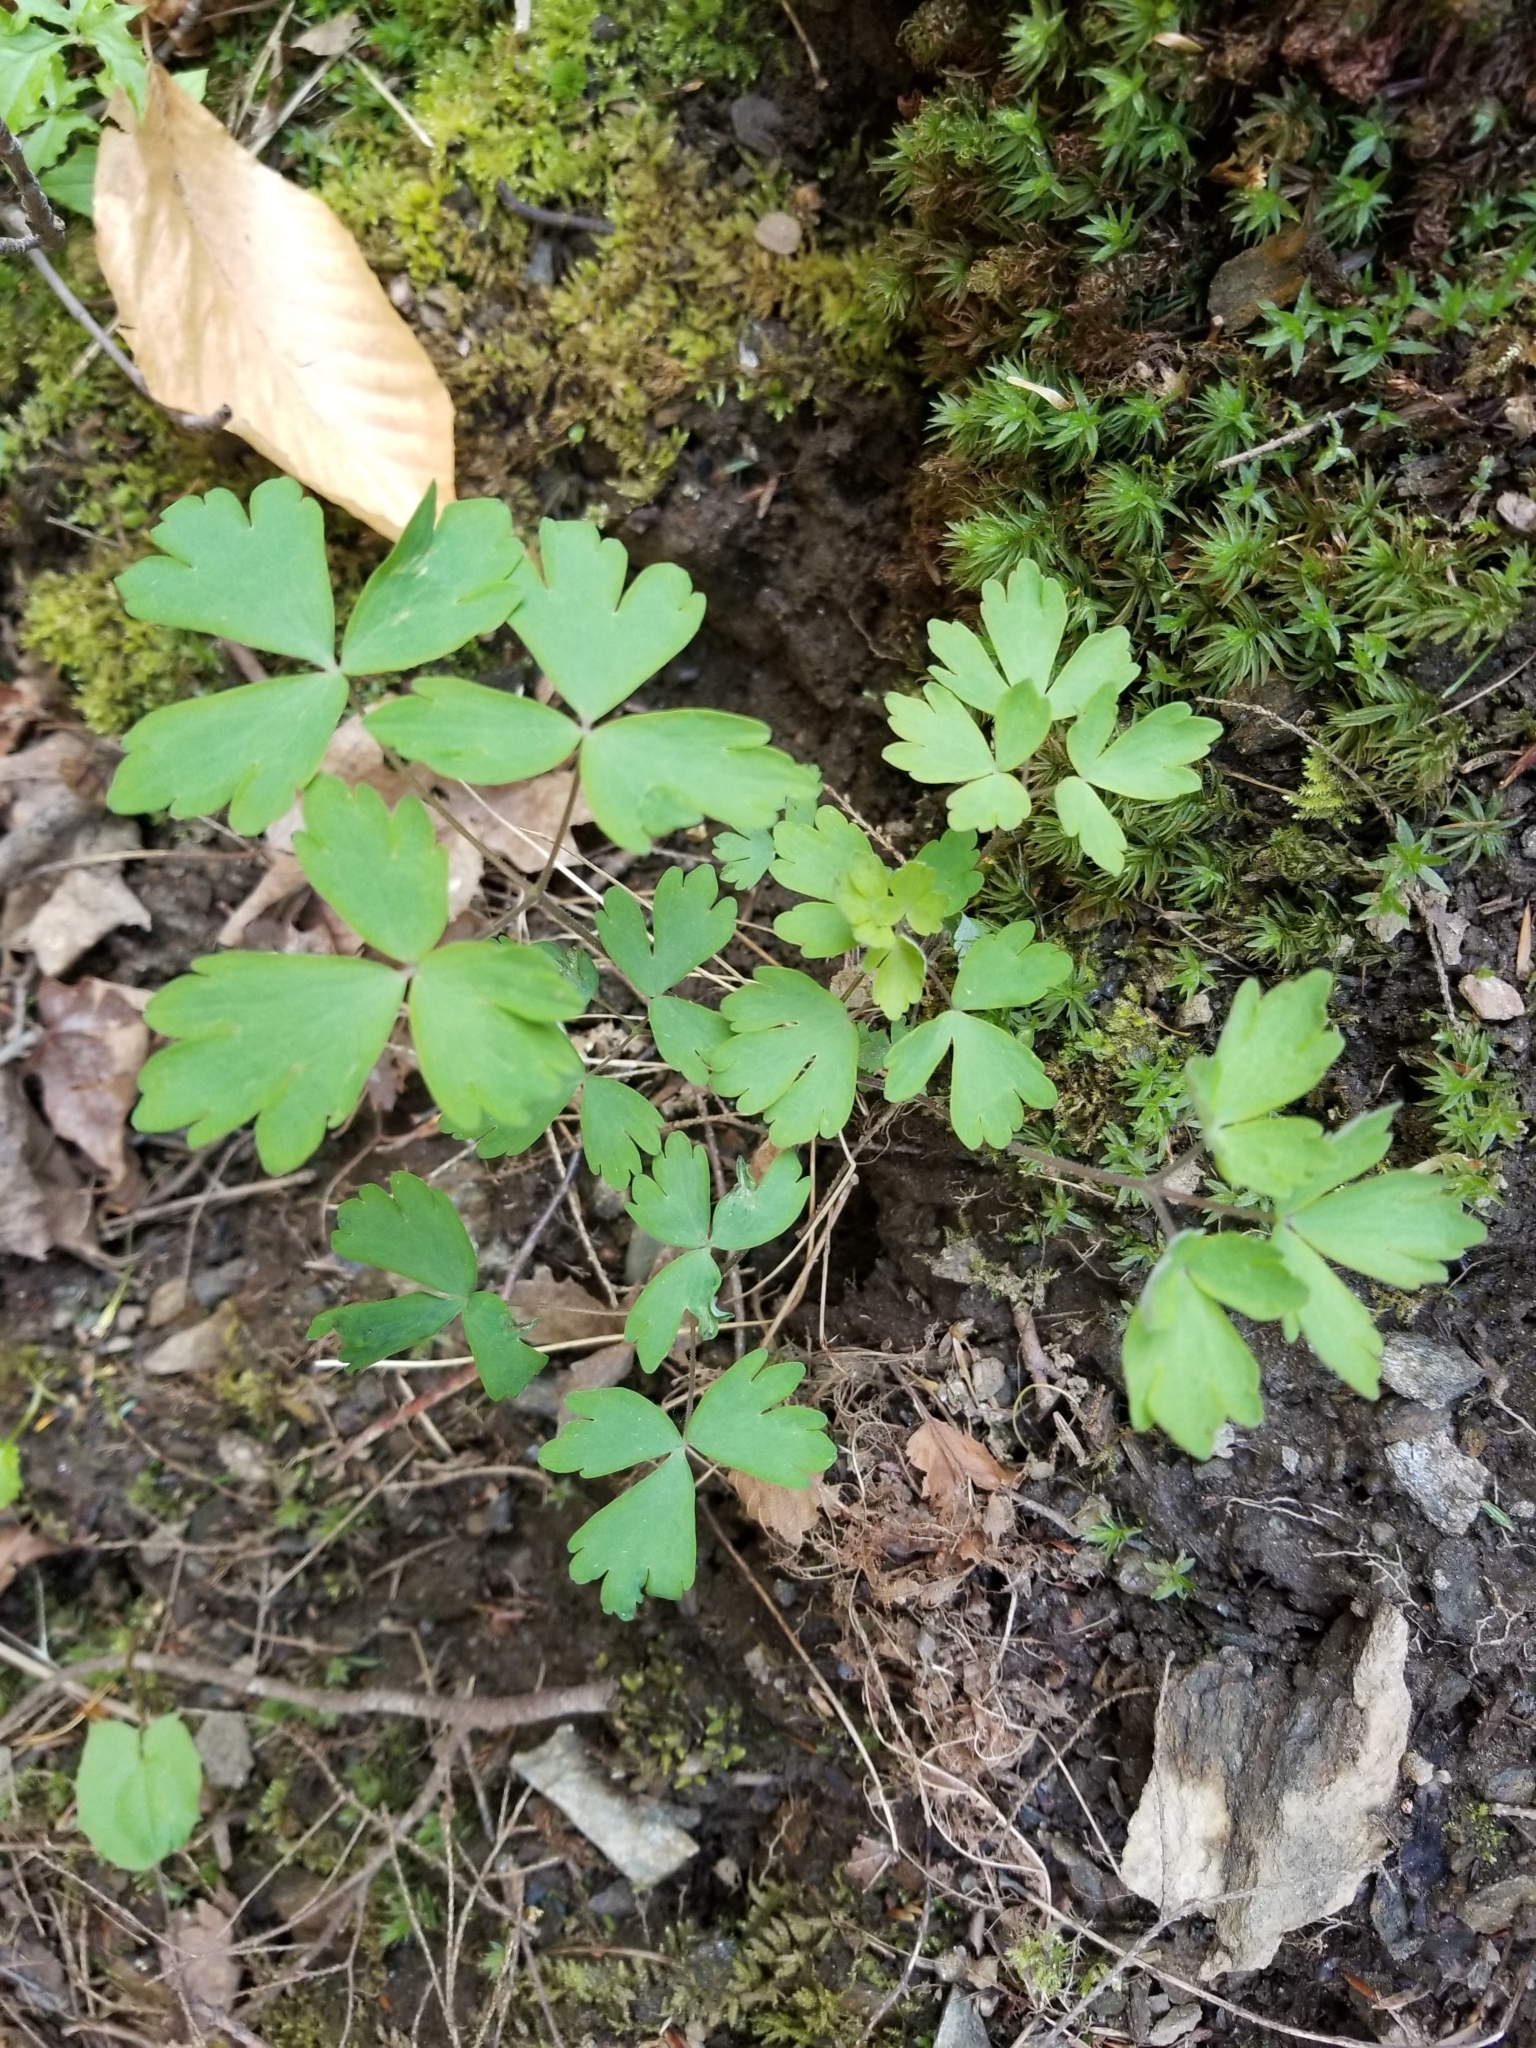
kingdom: Plantae
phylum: Tracheophyta
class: Magnoliopsida
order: Ranunculales
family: Ranunculaceae
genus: Anemone
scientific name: Anemone quinquefolia
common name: Wood anemone
